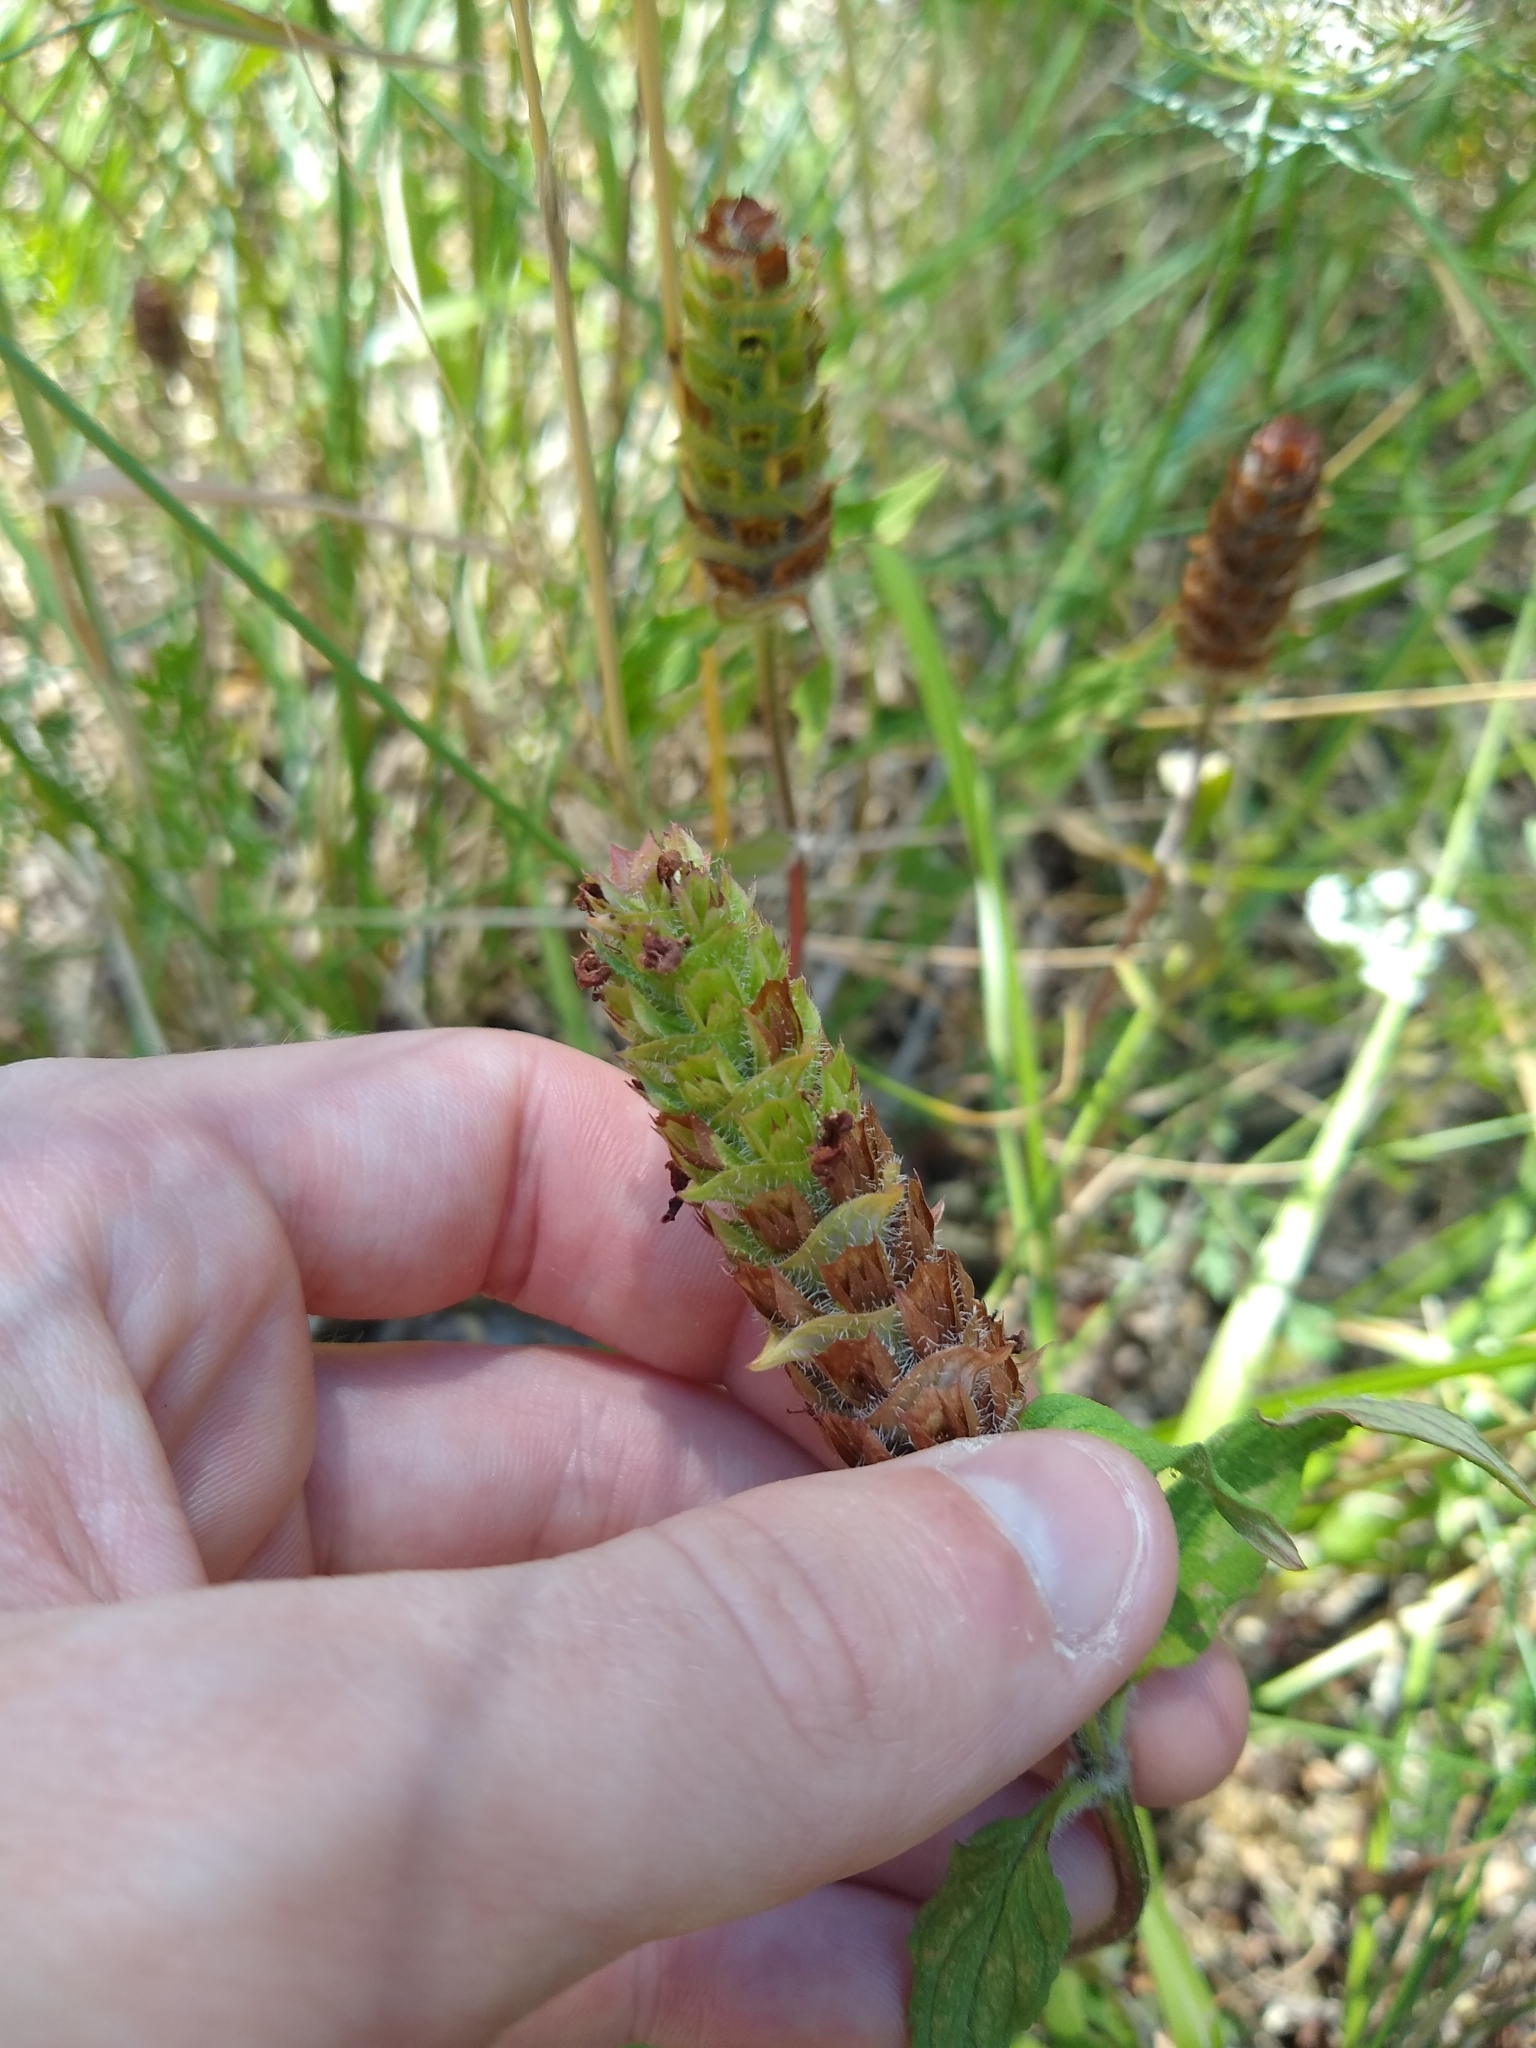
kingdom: Plantae
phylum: Tracheophyta
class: Magnoliopsida
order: Lamiales
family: Lamiaceae
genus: Prunella
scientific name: Prunella vulgaris
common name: Heal-all
